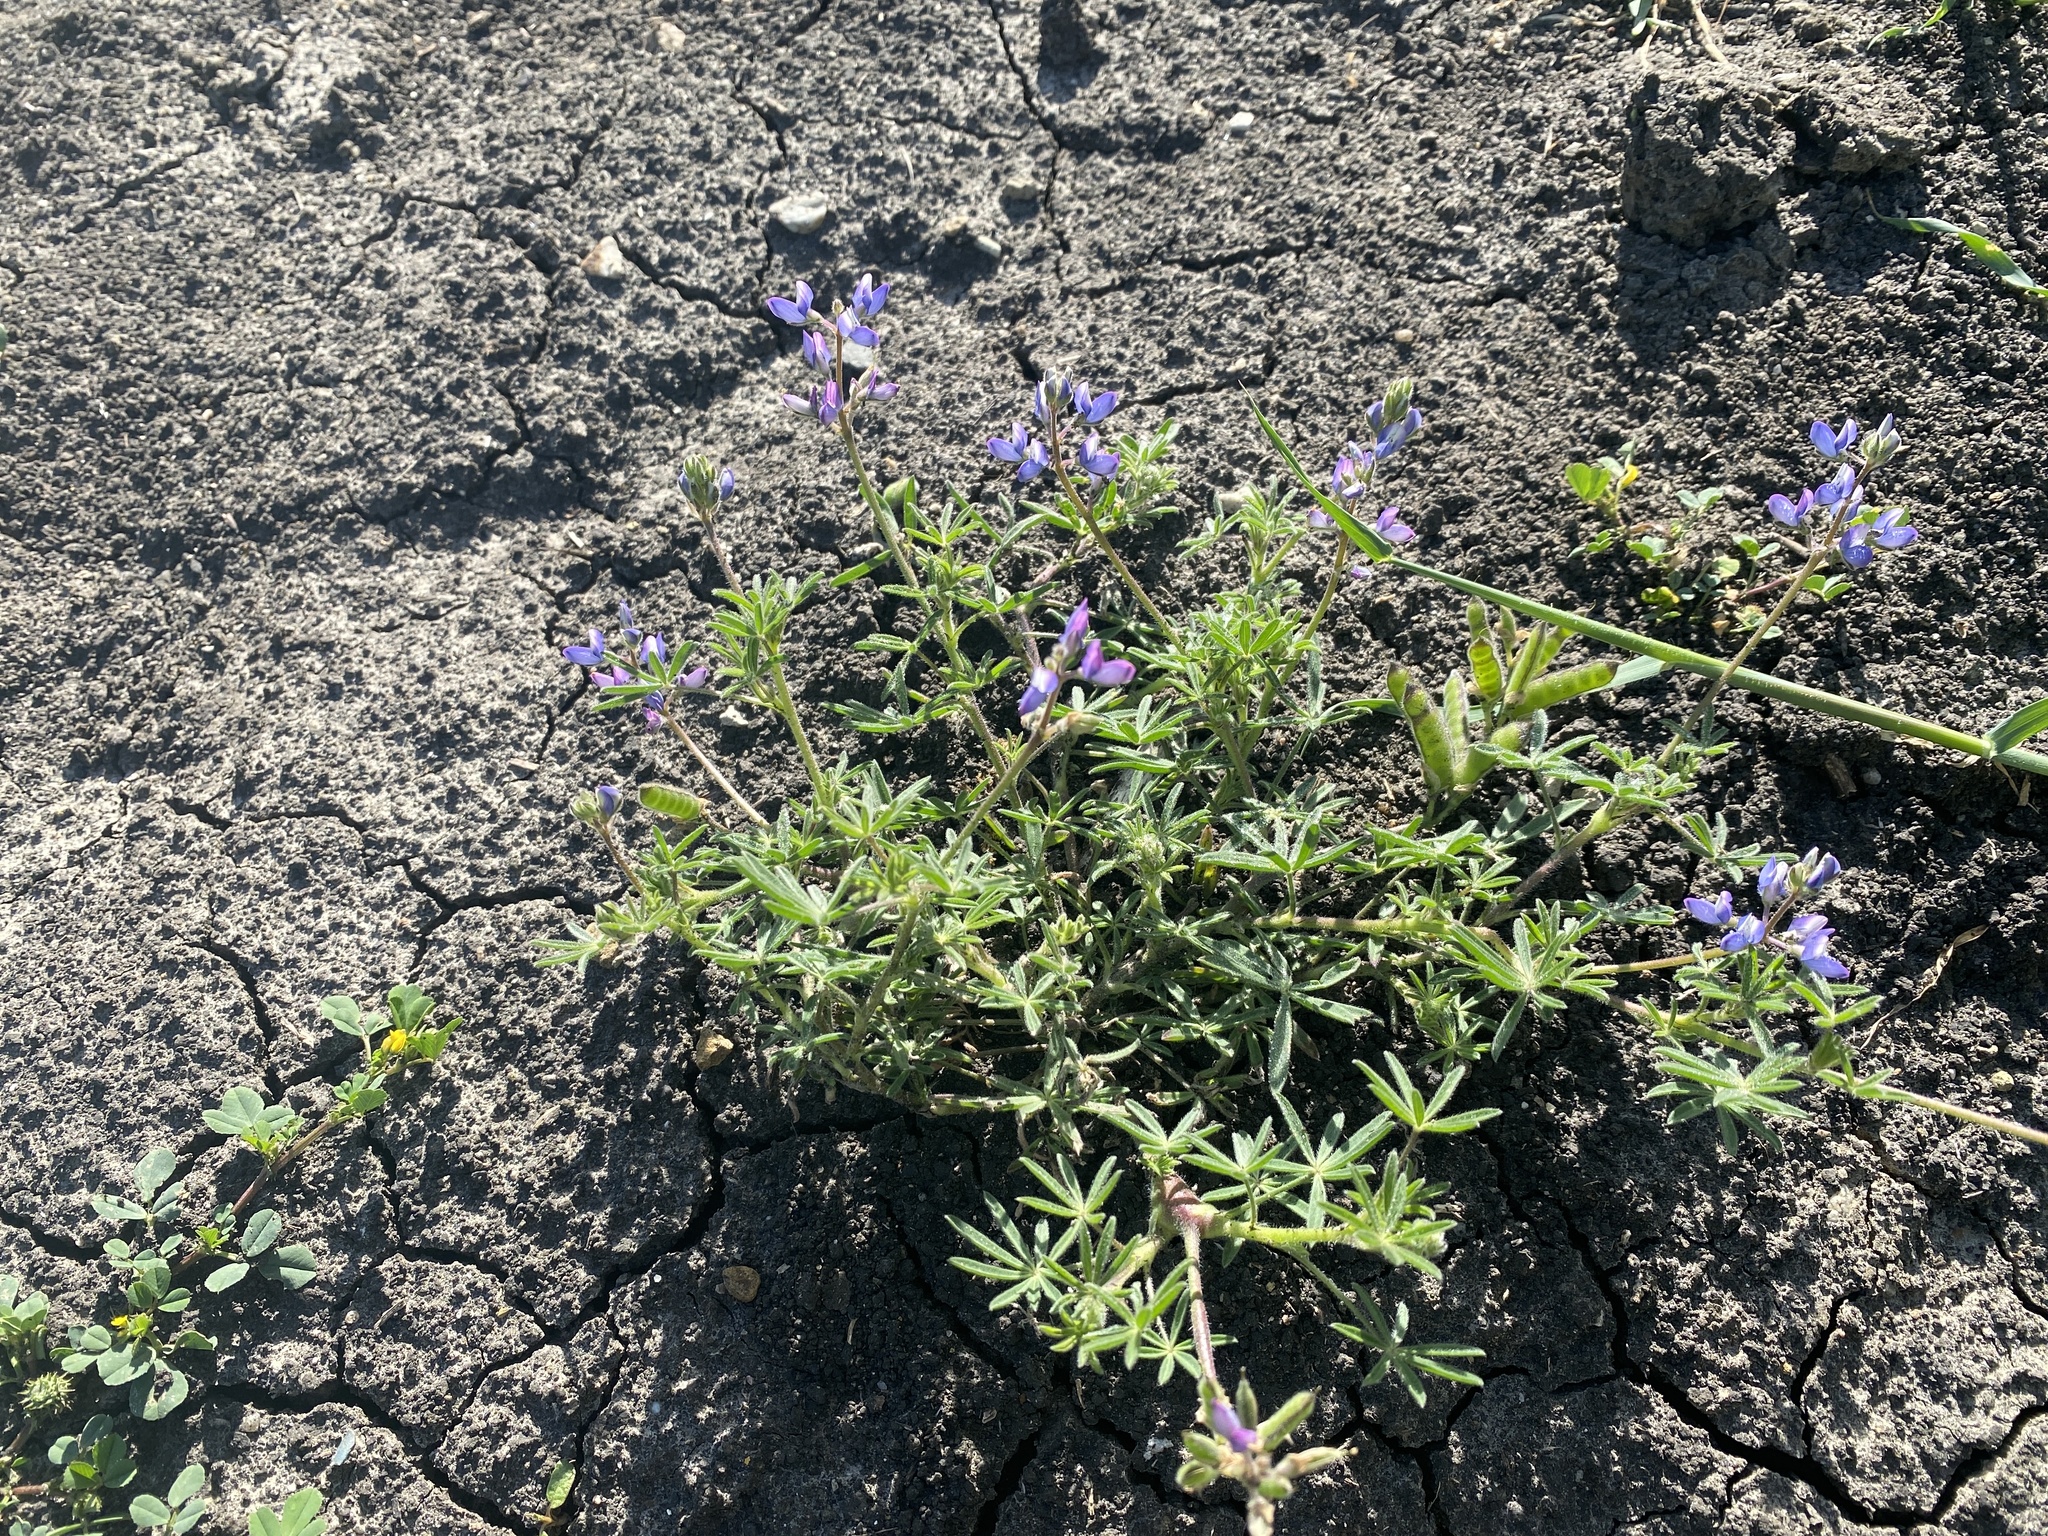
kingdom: Plantae
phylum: Tracheophyta
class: Magnoliopsida
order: Fabales
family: Fabaceae
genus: Lupinus
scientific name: Lupinus bicolor
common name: Miniature lupine
